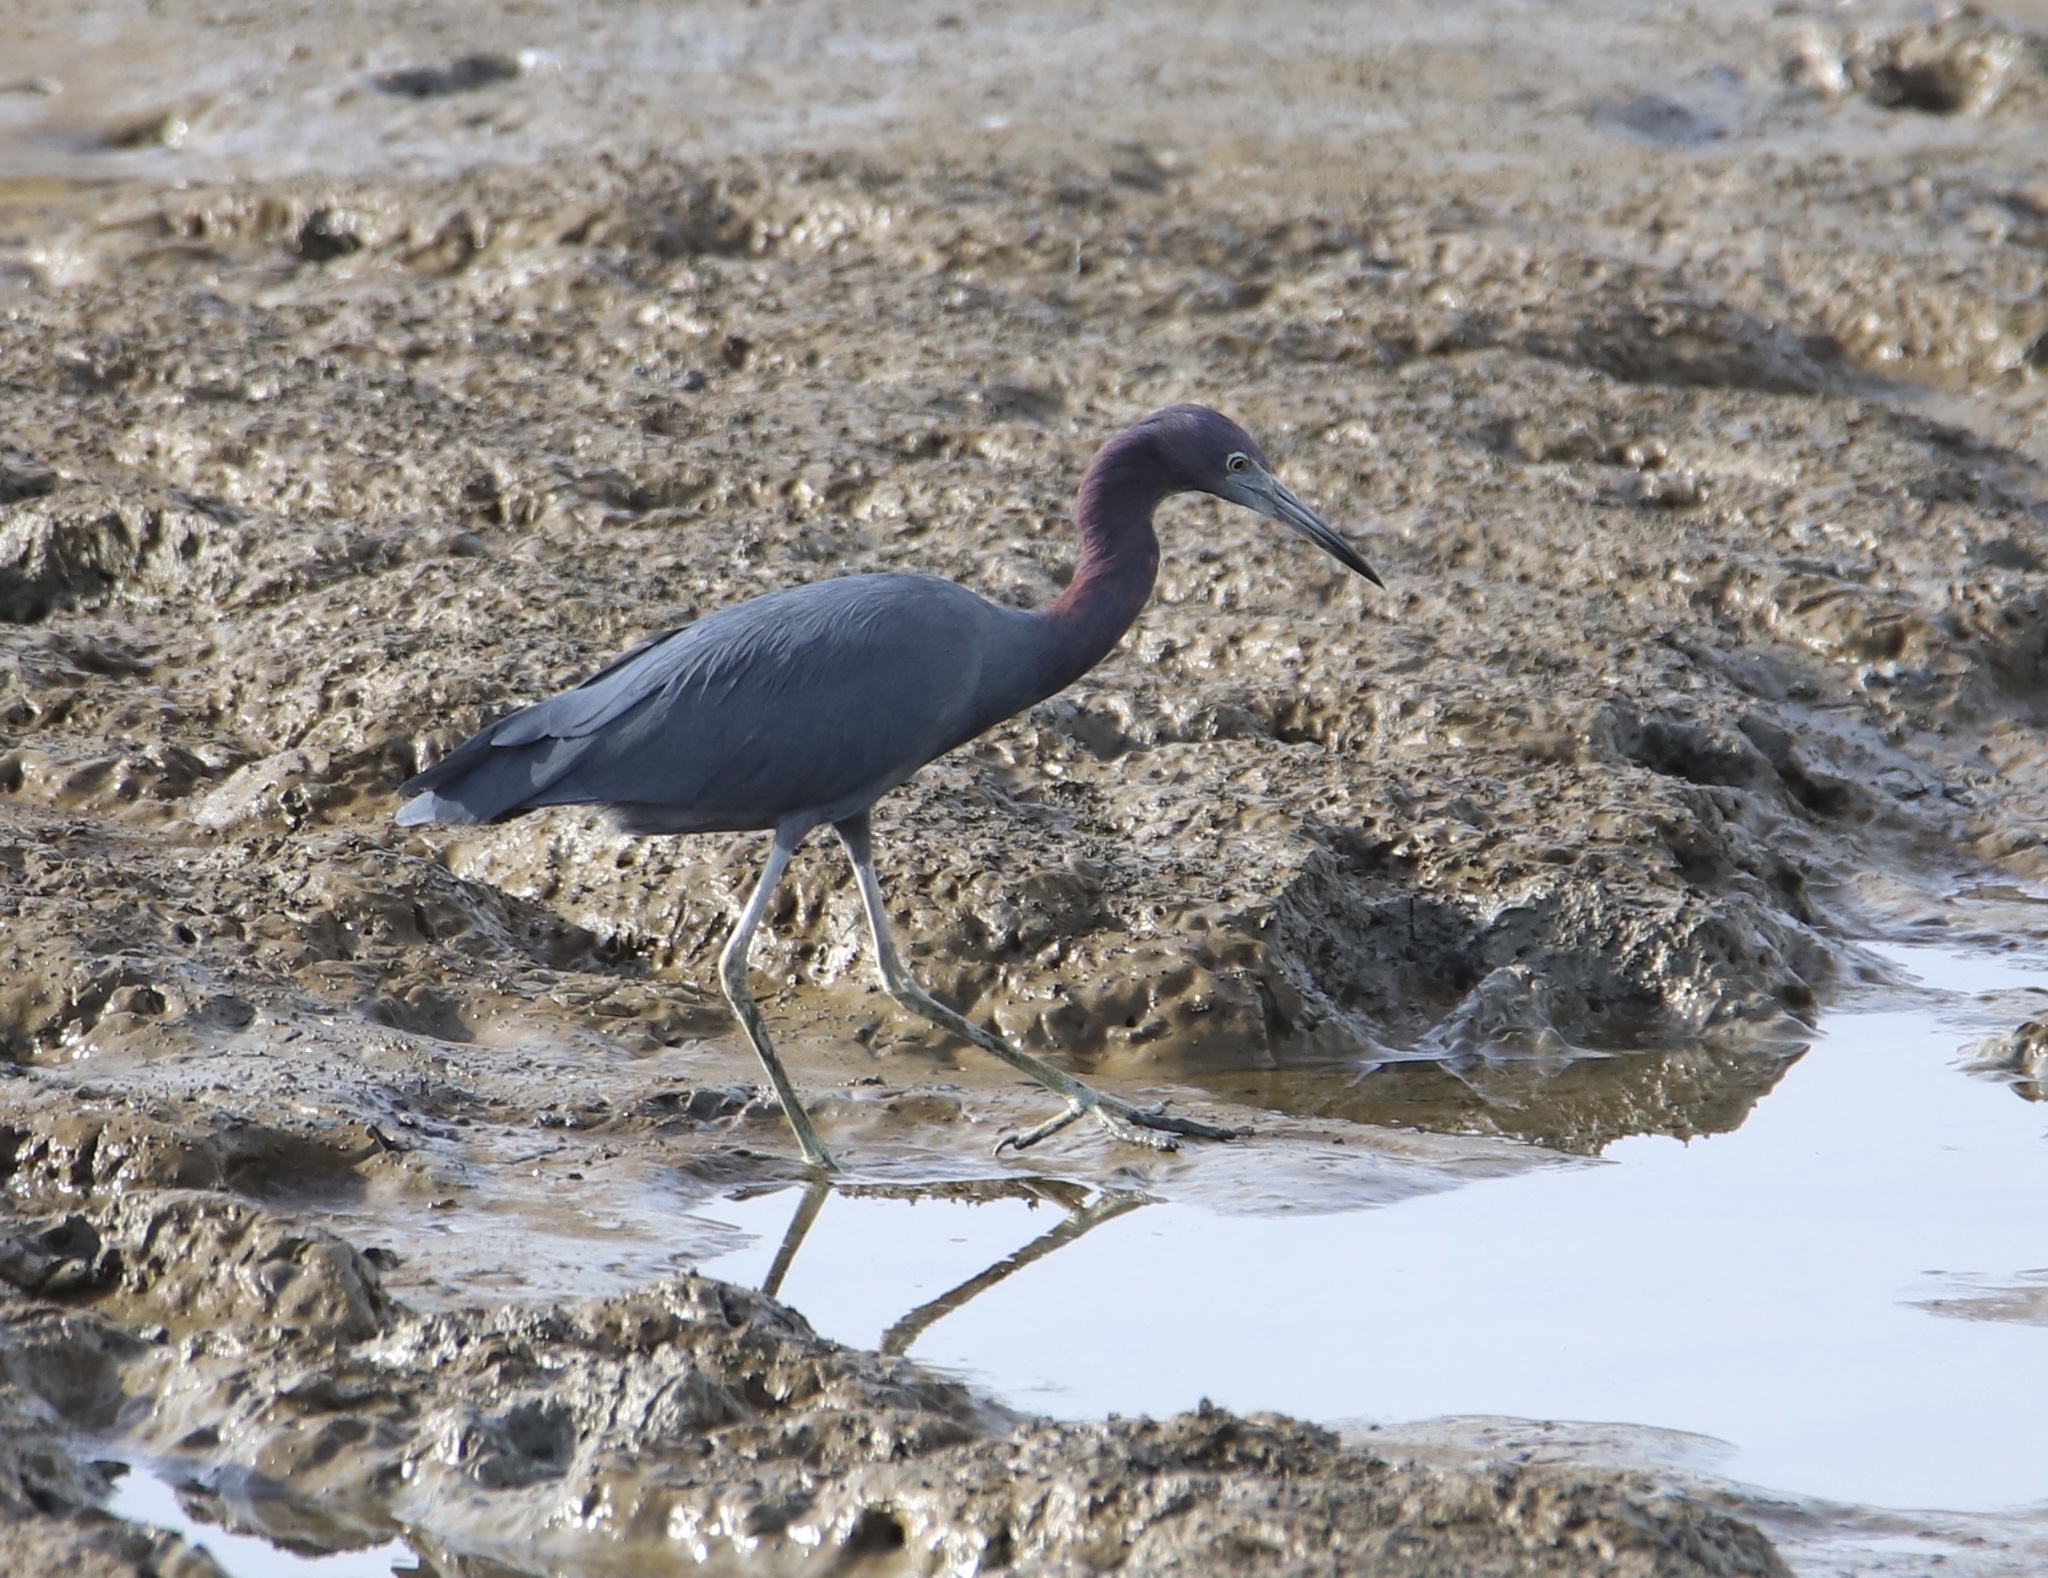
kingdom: Animalia
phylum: Chordata
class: Aves
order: Pelecaniformes
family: Ardeidae
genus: Egretta
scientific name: Egretta caerulea
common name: Little blue heron
